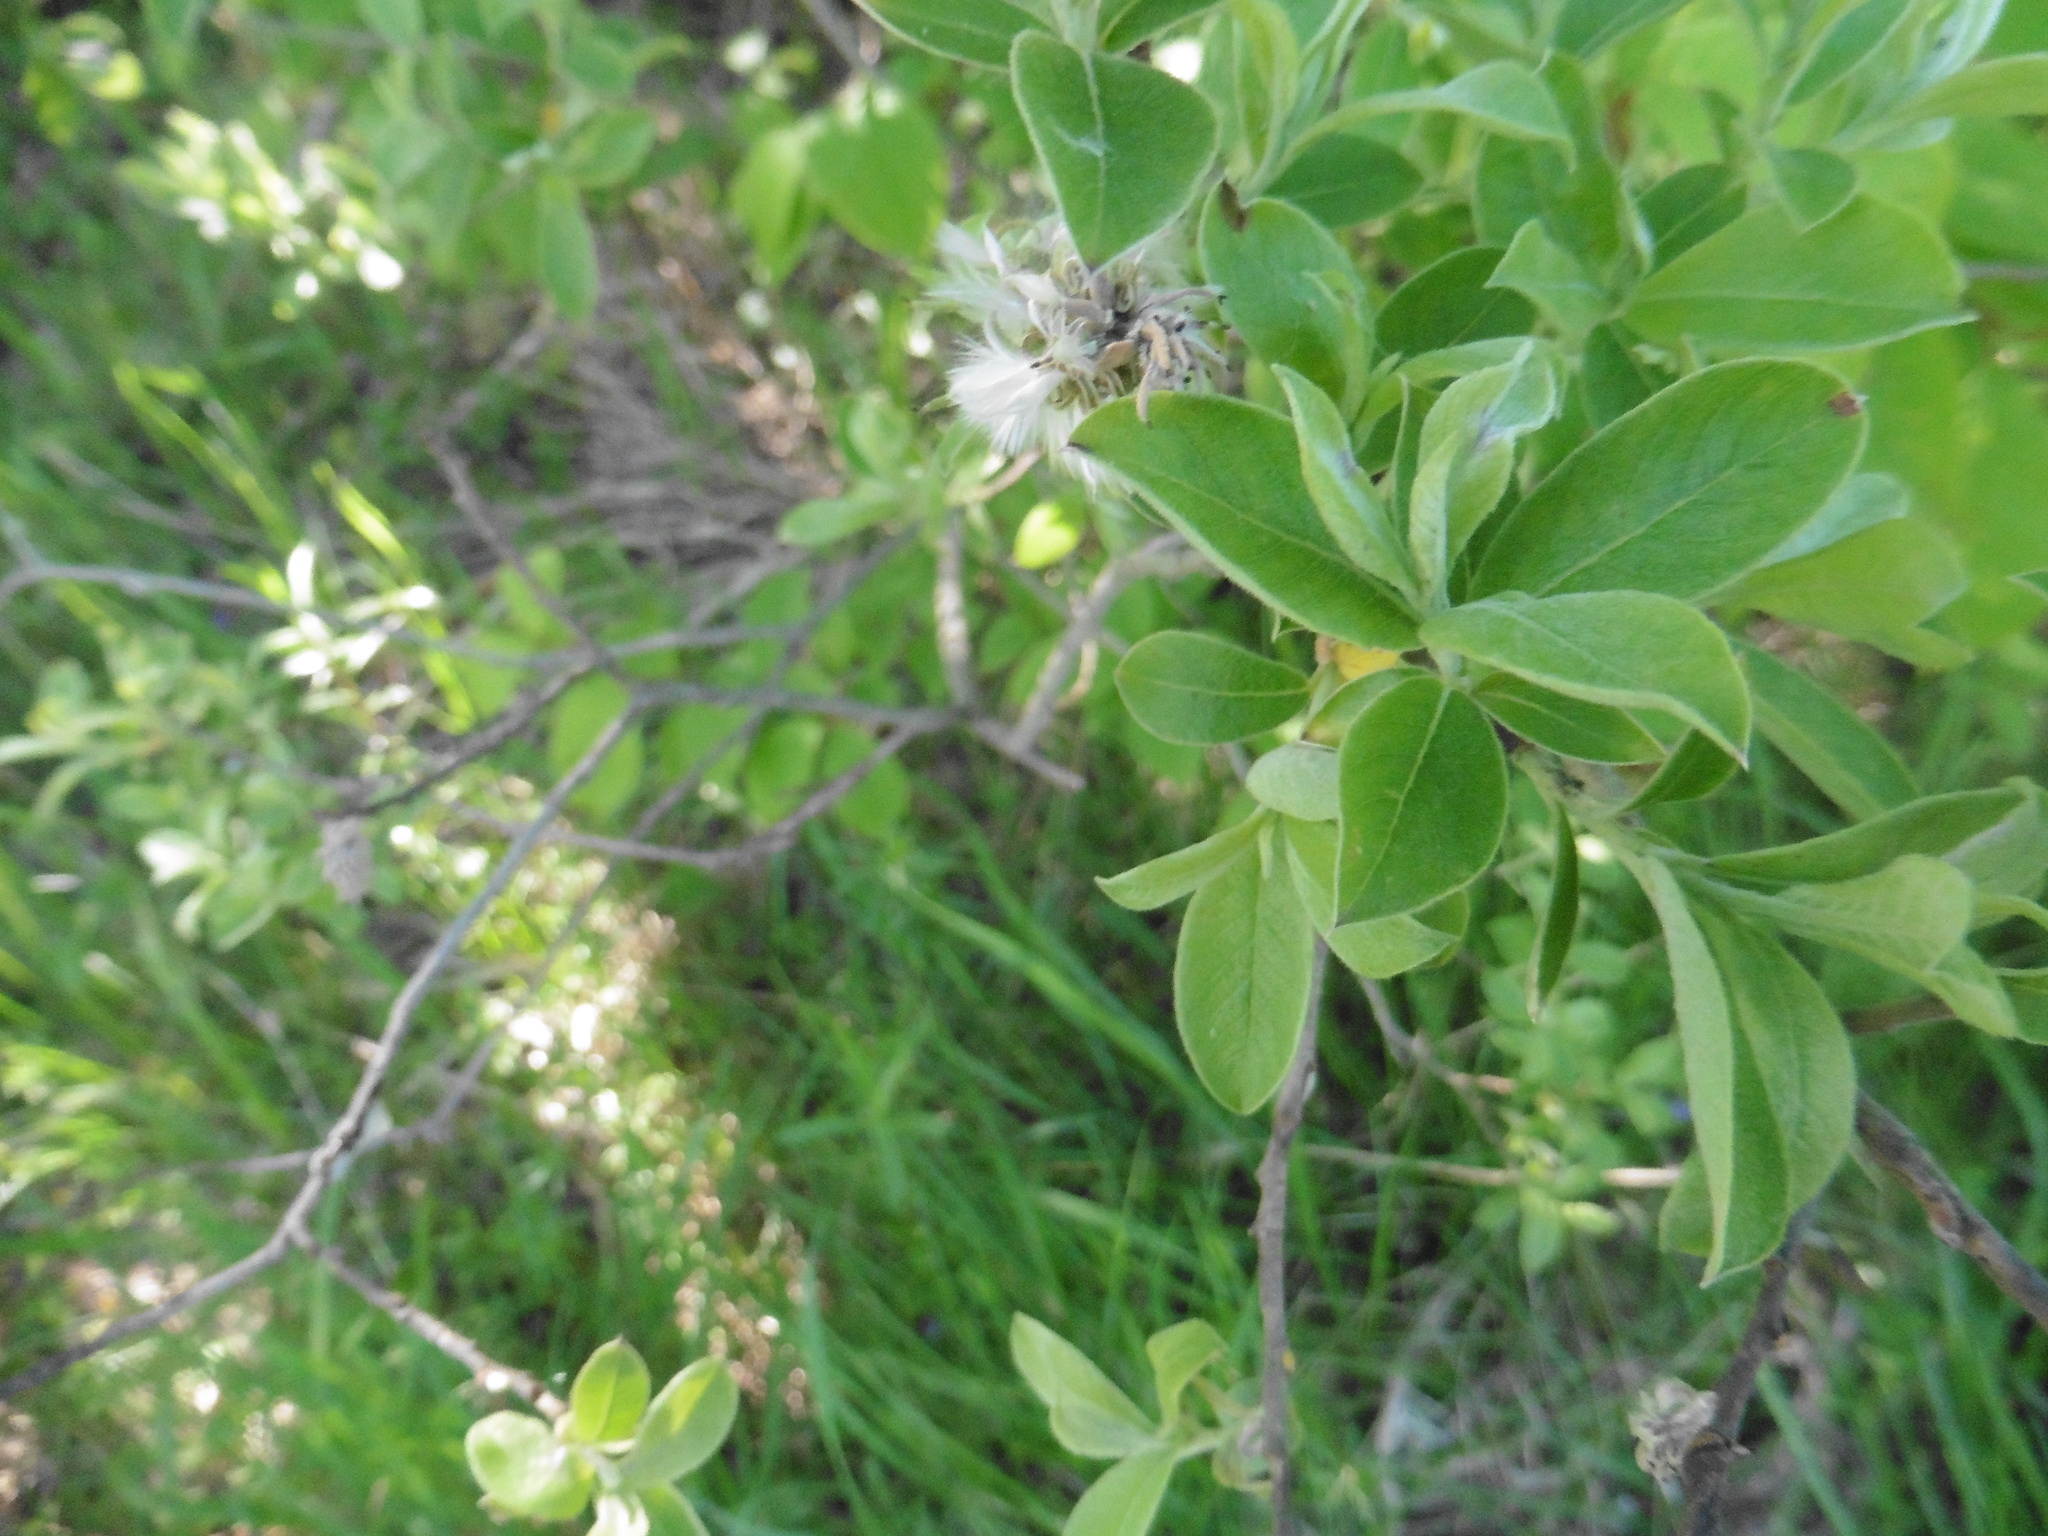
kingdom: Plantae
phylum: Tracheophyta
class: Magnoliopsida
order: Malpighiales
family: Salicaceae
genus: Salix
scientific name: Salix cinerea
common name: Common sallow
